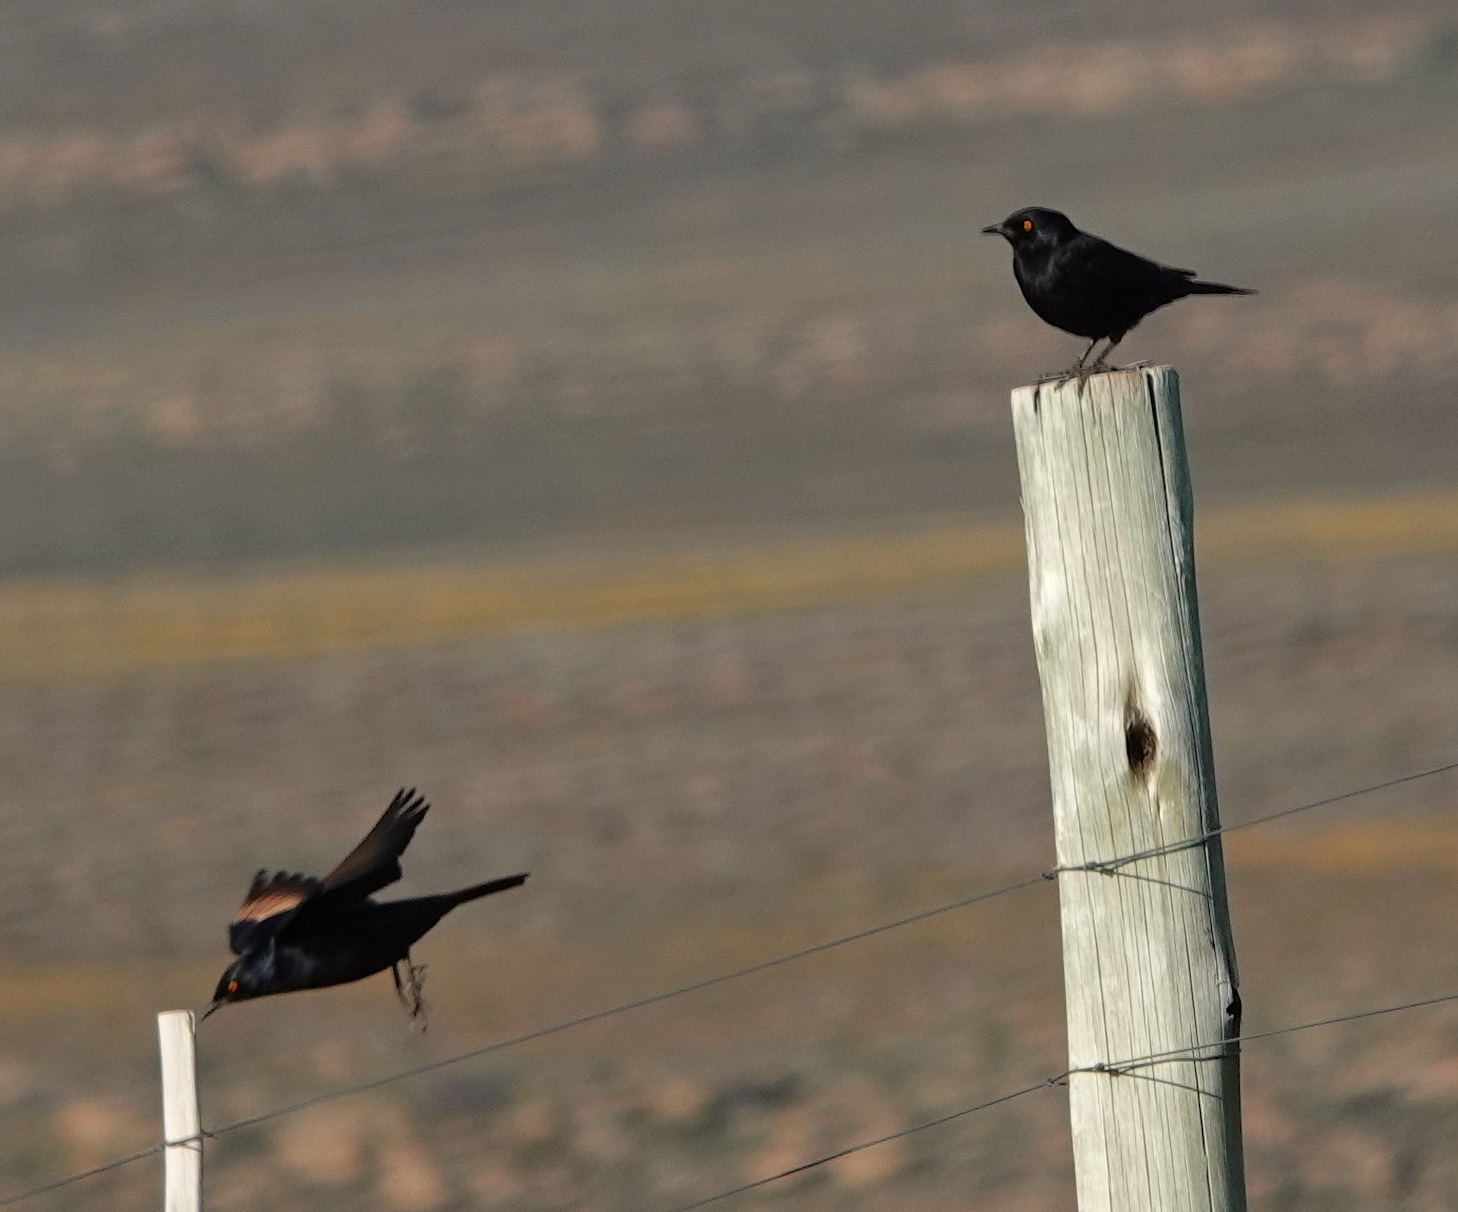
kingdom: Animalia
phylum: Chordata
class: Aves
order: Passeriformes
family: Sturnidae
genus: Onychognathus
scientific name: Onychognathus nabouroup
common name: Pale-winged starling
